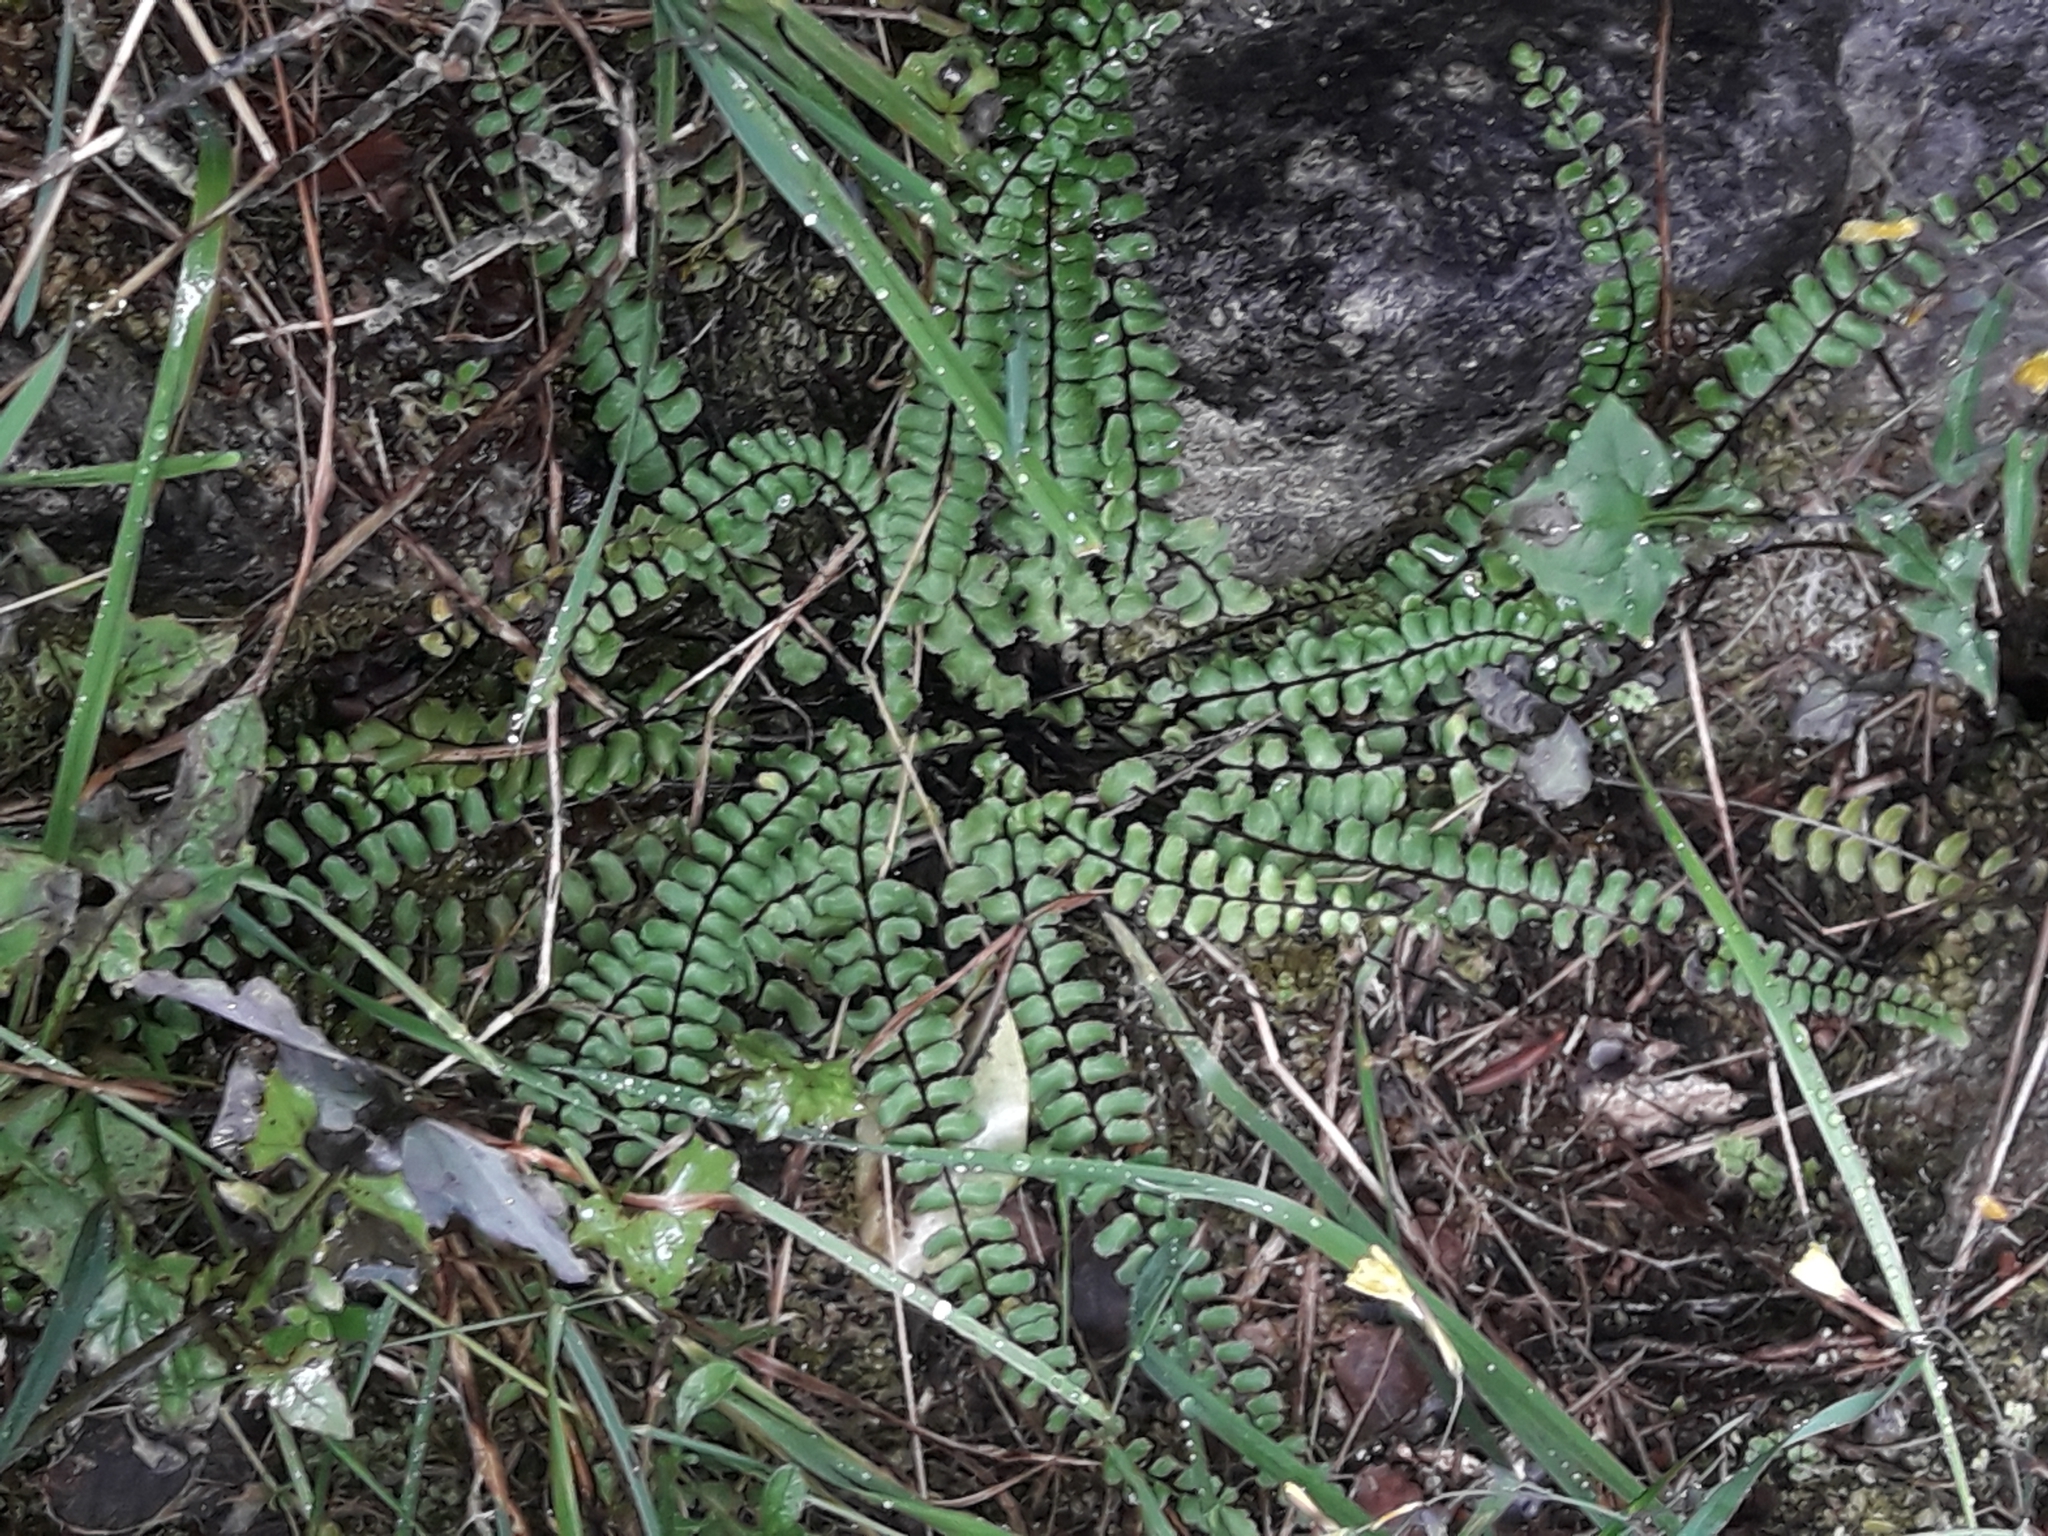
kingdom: Plantae
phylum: Tracheophyta
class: Polypodiopsida
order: Polypodiales
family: Aspleniaceae
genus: Asplenium
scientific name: Asplenium trichomanes
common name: Maidenhair spleenwort
